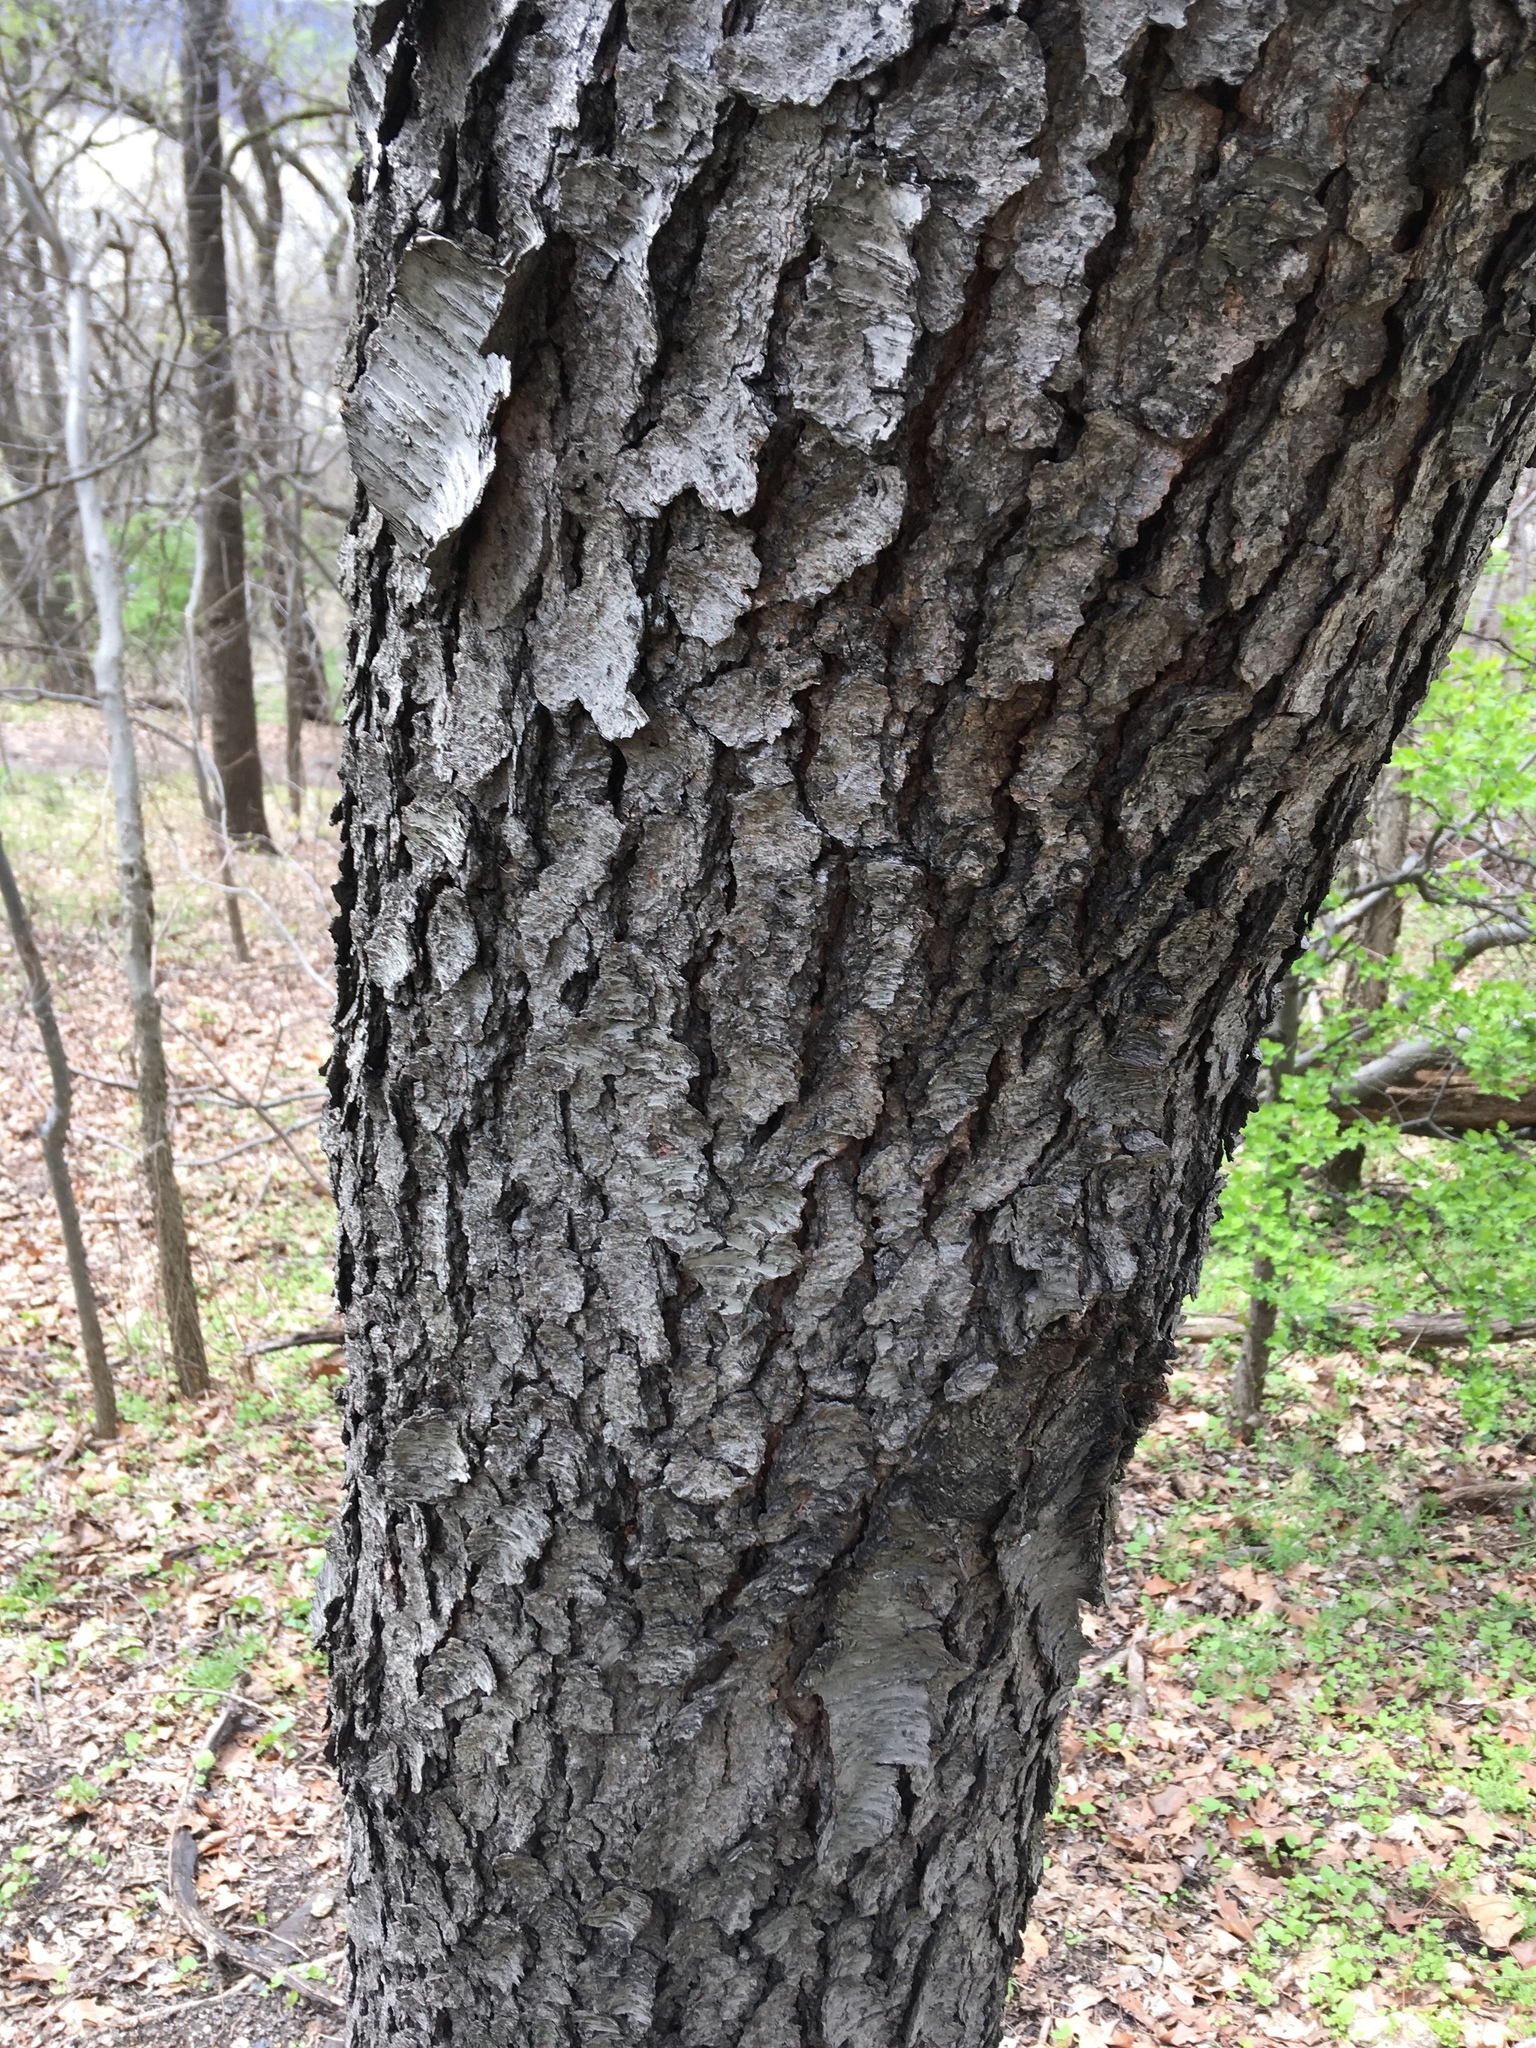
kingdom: Plantae
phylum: Tracheophyta
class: Magnoliopsida
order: Rosales
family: Rosaceae
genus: Prunus
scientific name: Prunus serotina
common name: Black cherry
